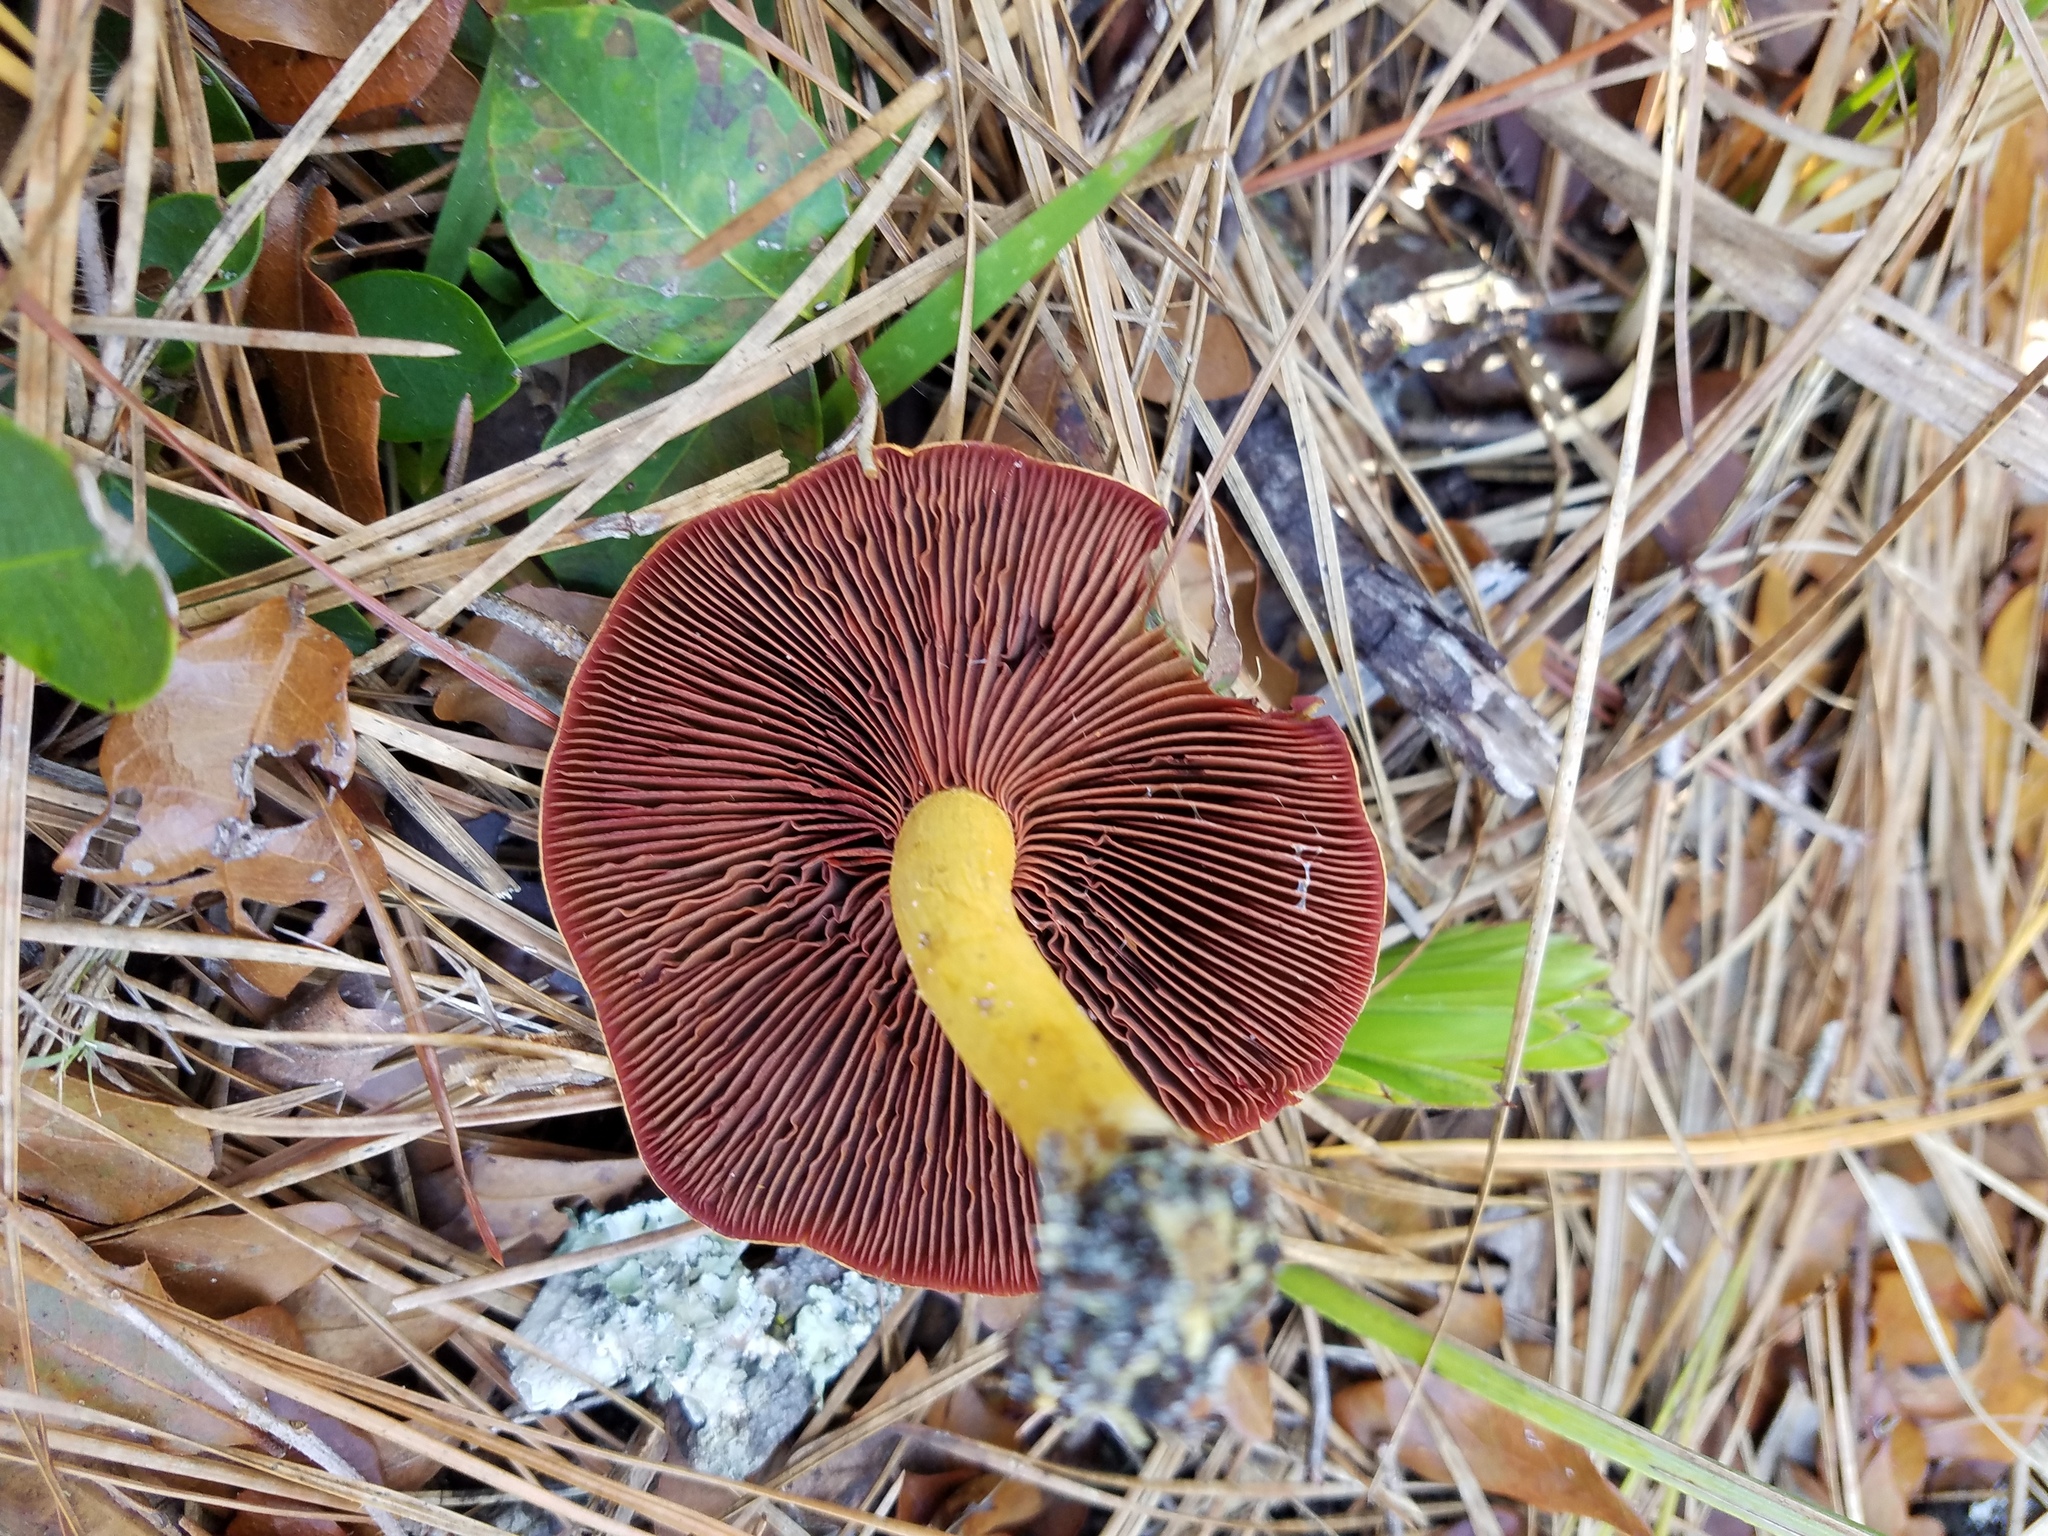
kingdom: Fungi
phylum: Basidiomycota
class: Agaricomycetes
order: Agaricales
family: Cortinariaceae
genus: Cortinarius
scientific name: Cortinarius semisanguineus
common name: Surprise webcap
